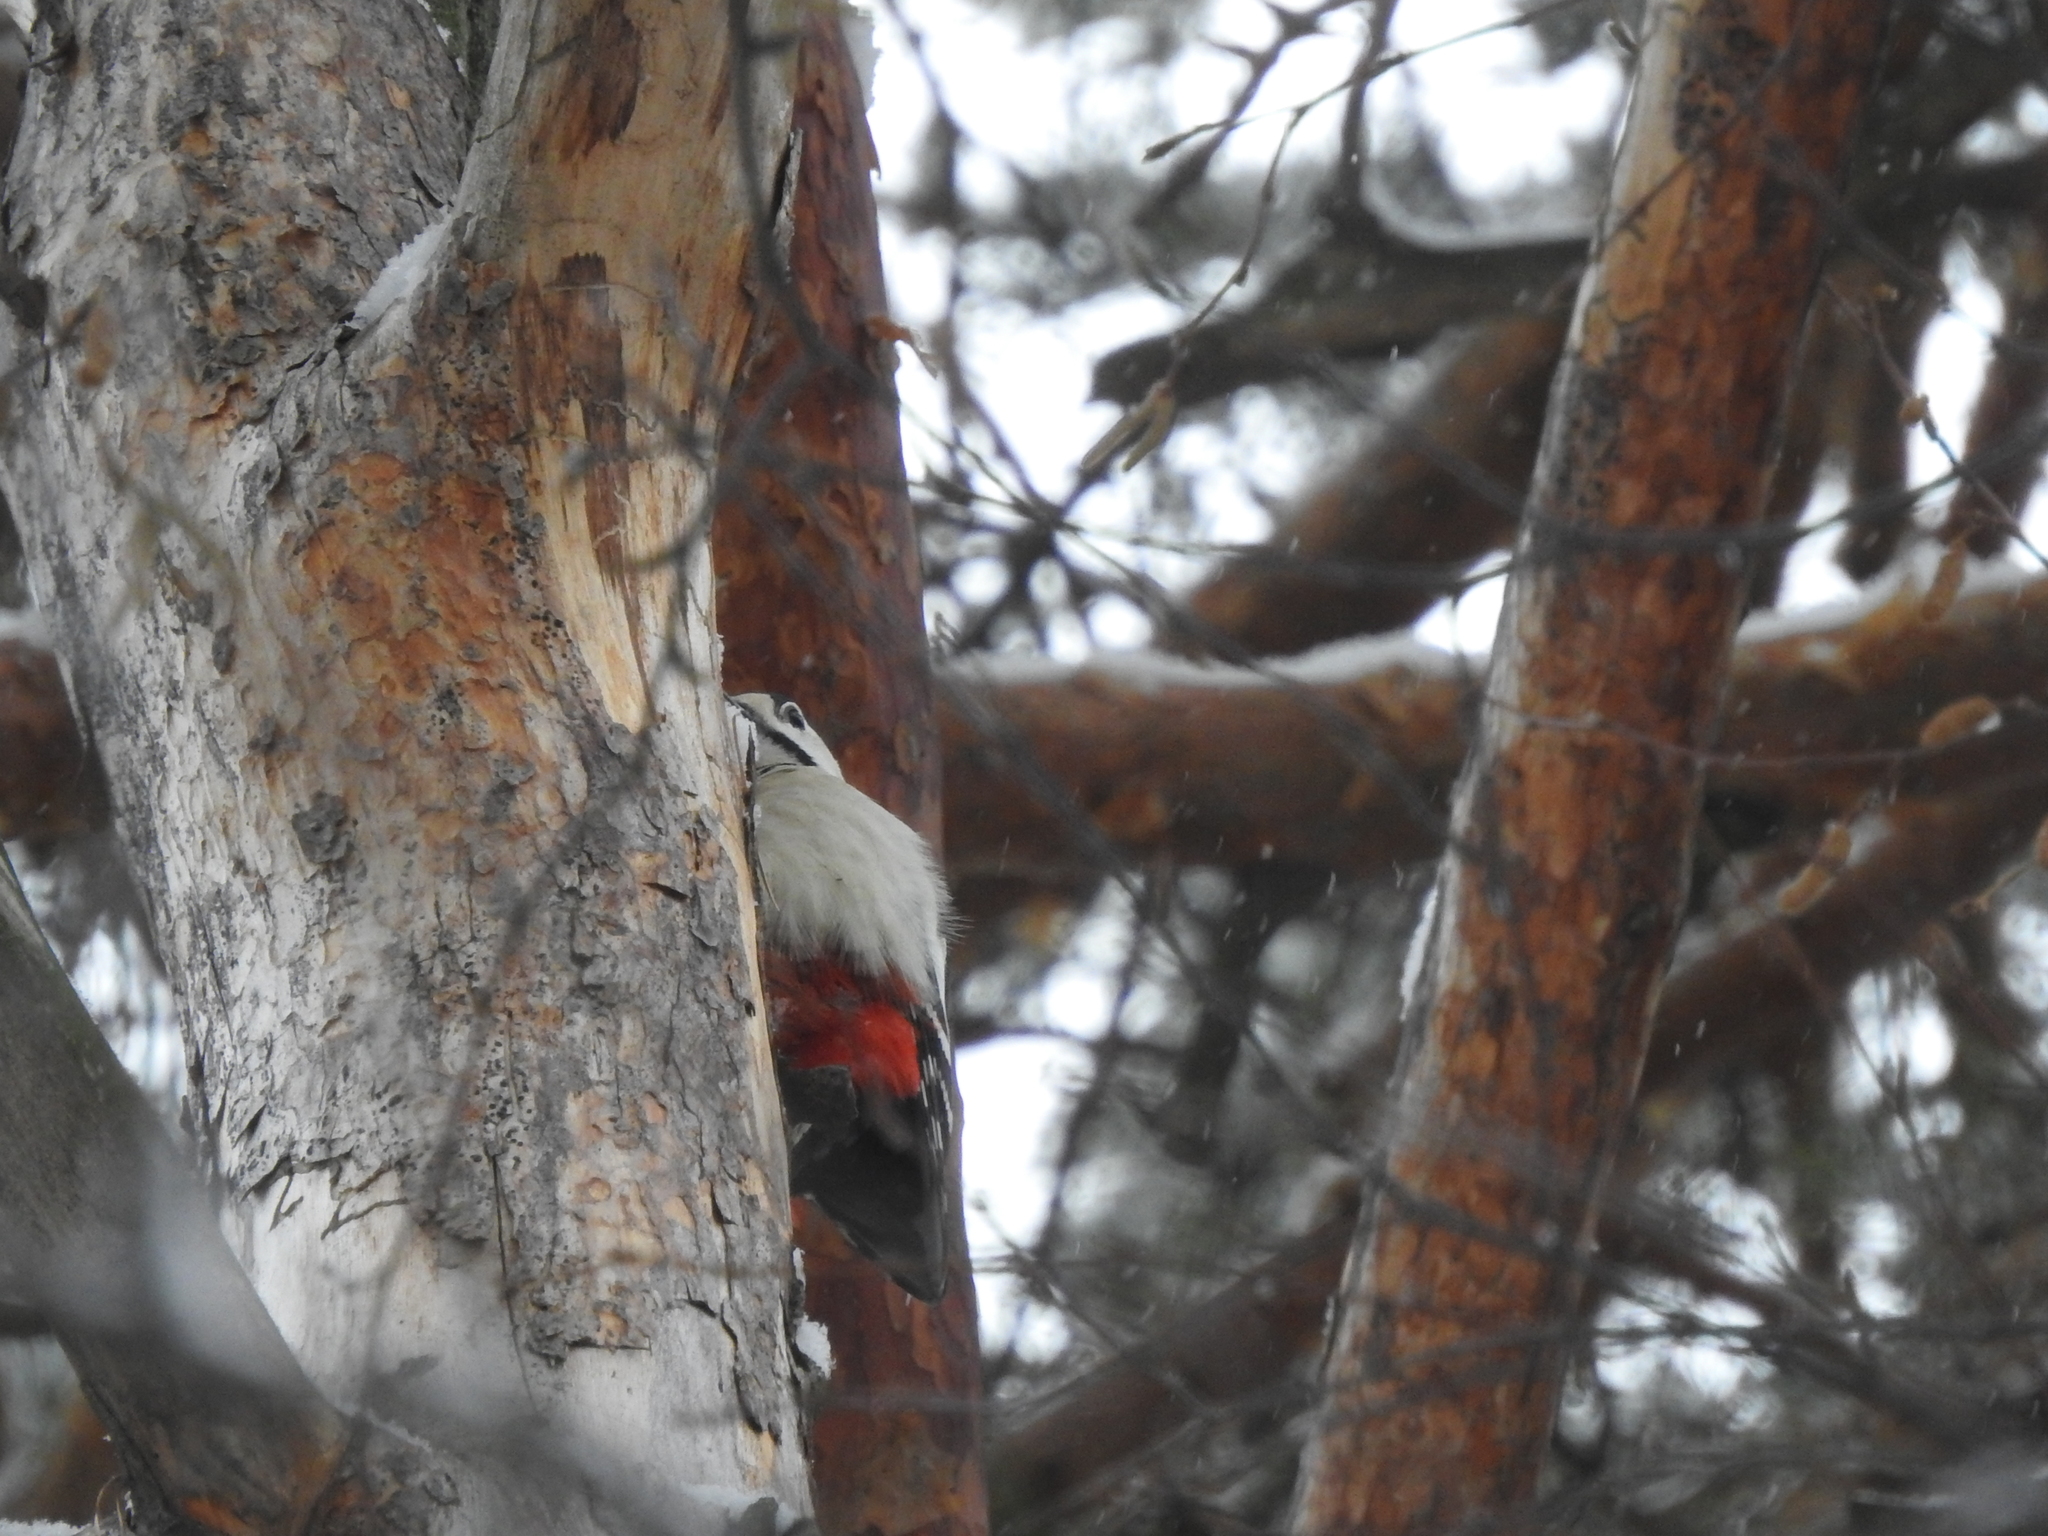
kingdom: Animalia
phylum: Chordata
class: Aves
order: Piciformes
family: Picidae
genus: Dendrocopos
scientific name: Dendrocopos major
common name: Great spotted woodpecker
